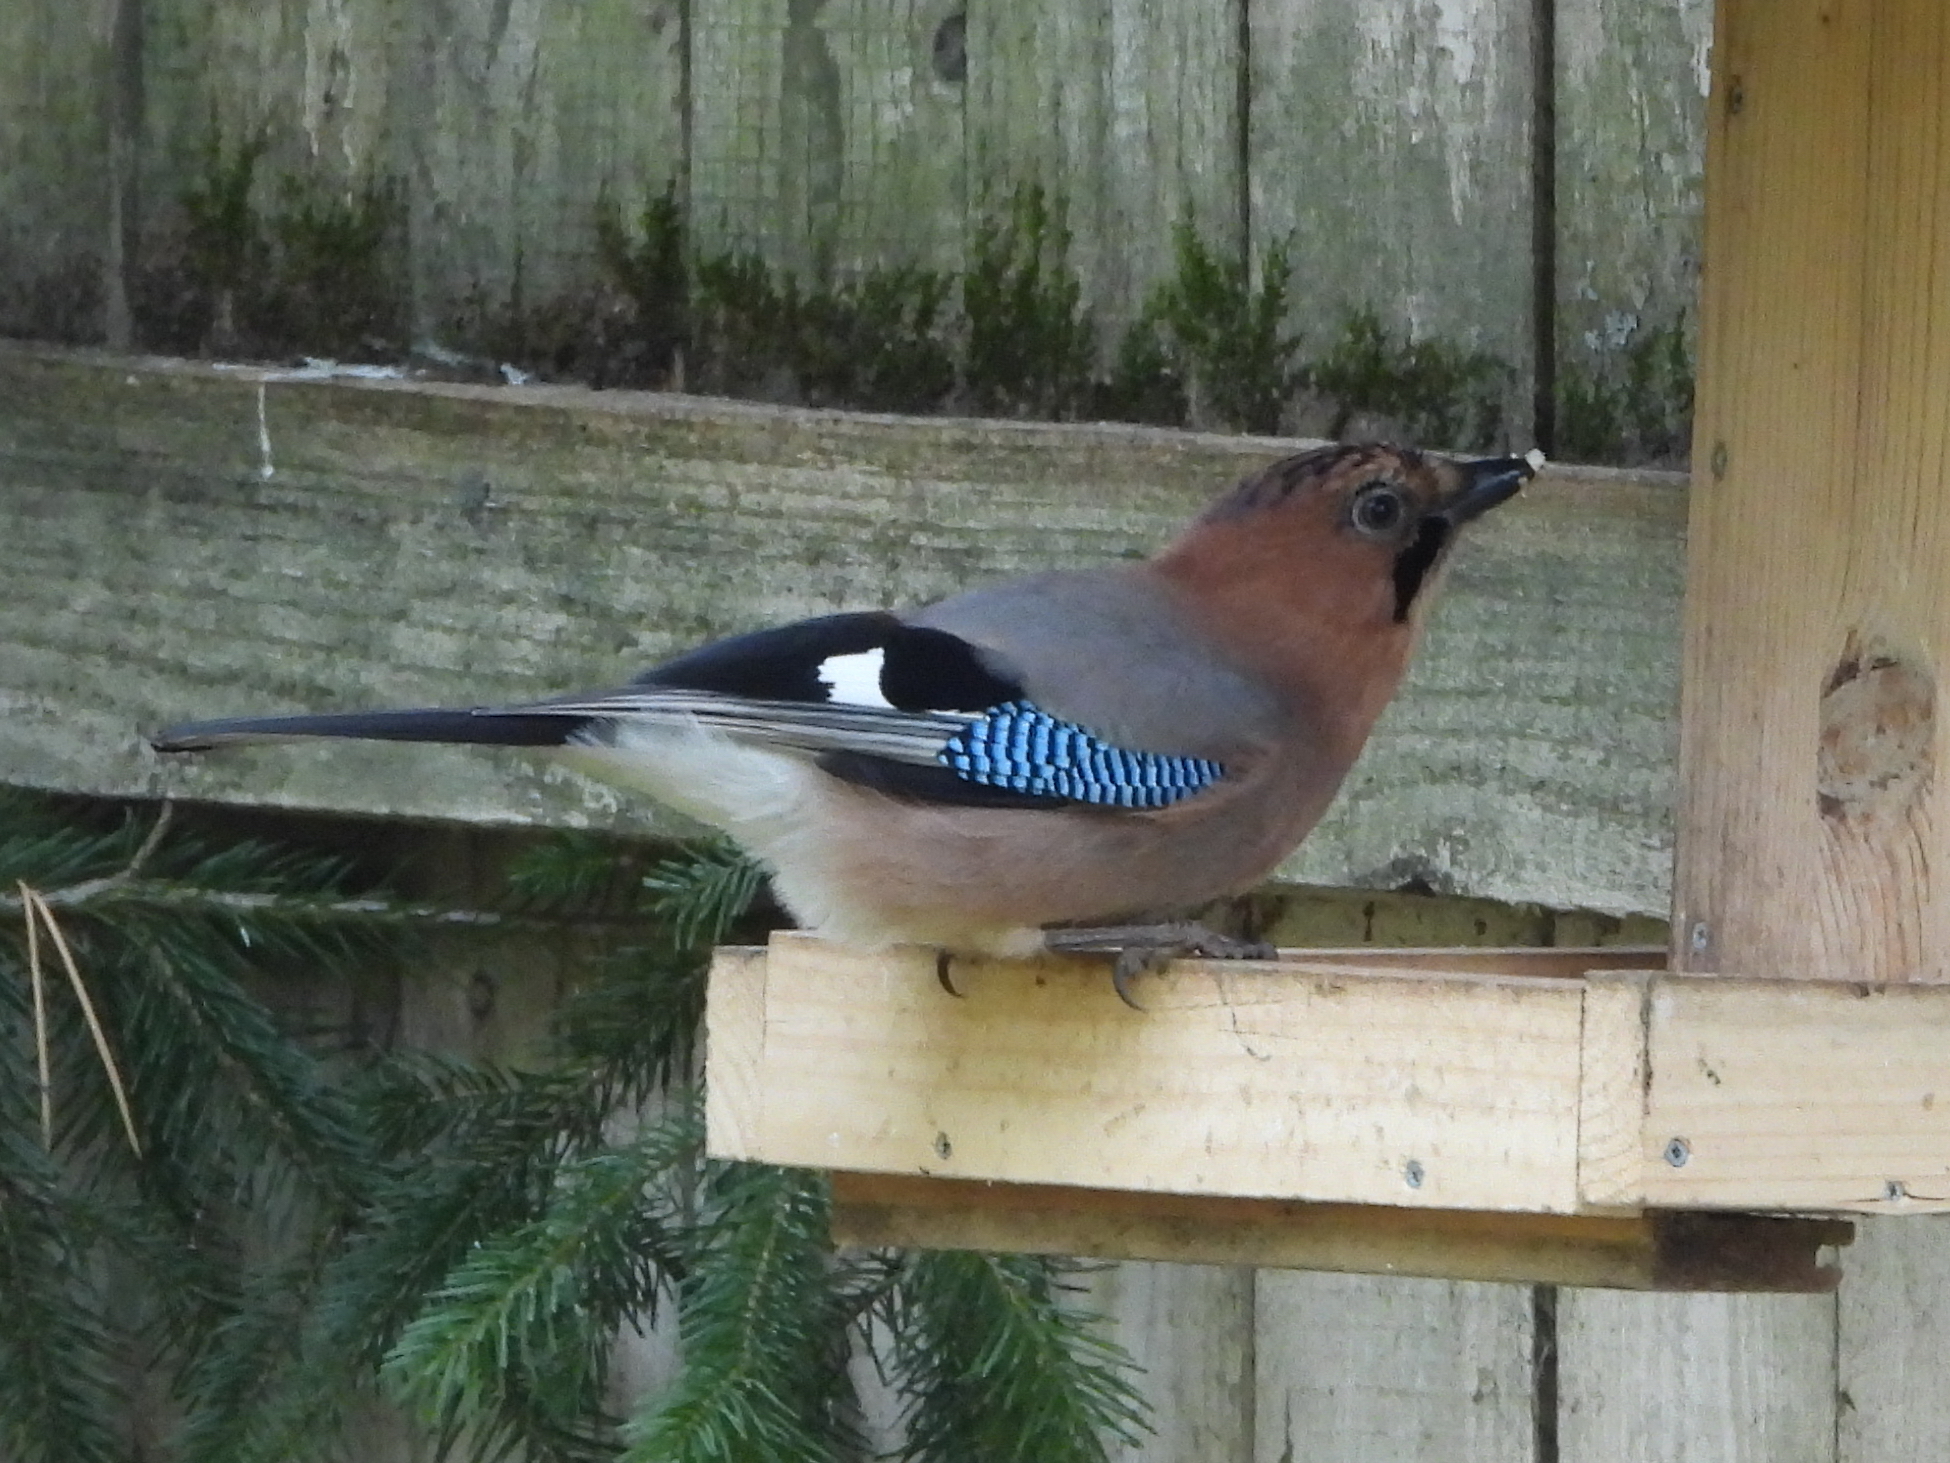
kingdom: Animalia
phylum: Chordata
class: Aves
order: Passeriformes
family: Corvidae
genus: Garrulus
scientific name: Garrulus glandarius
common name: Eurasian jay
